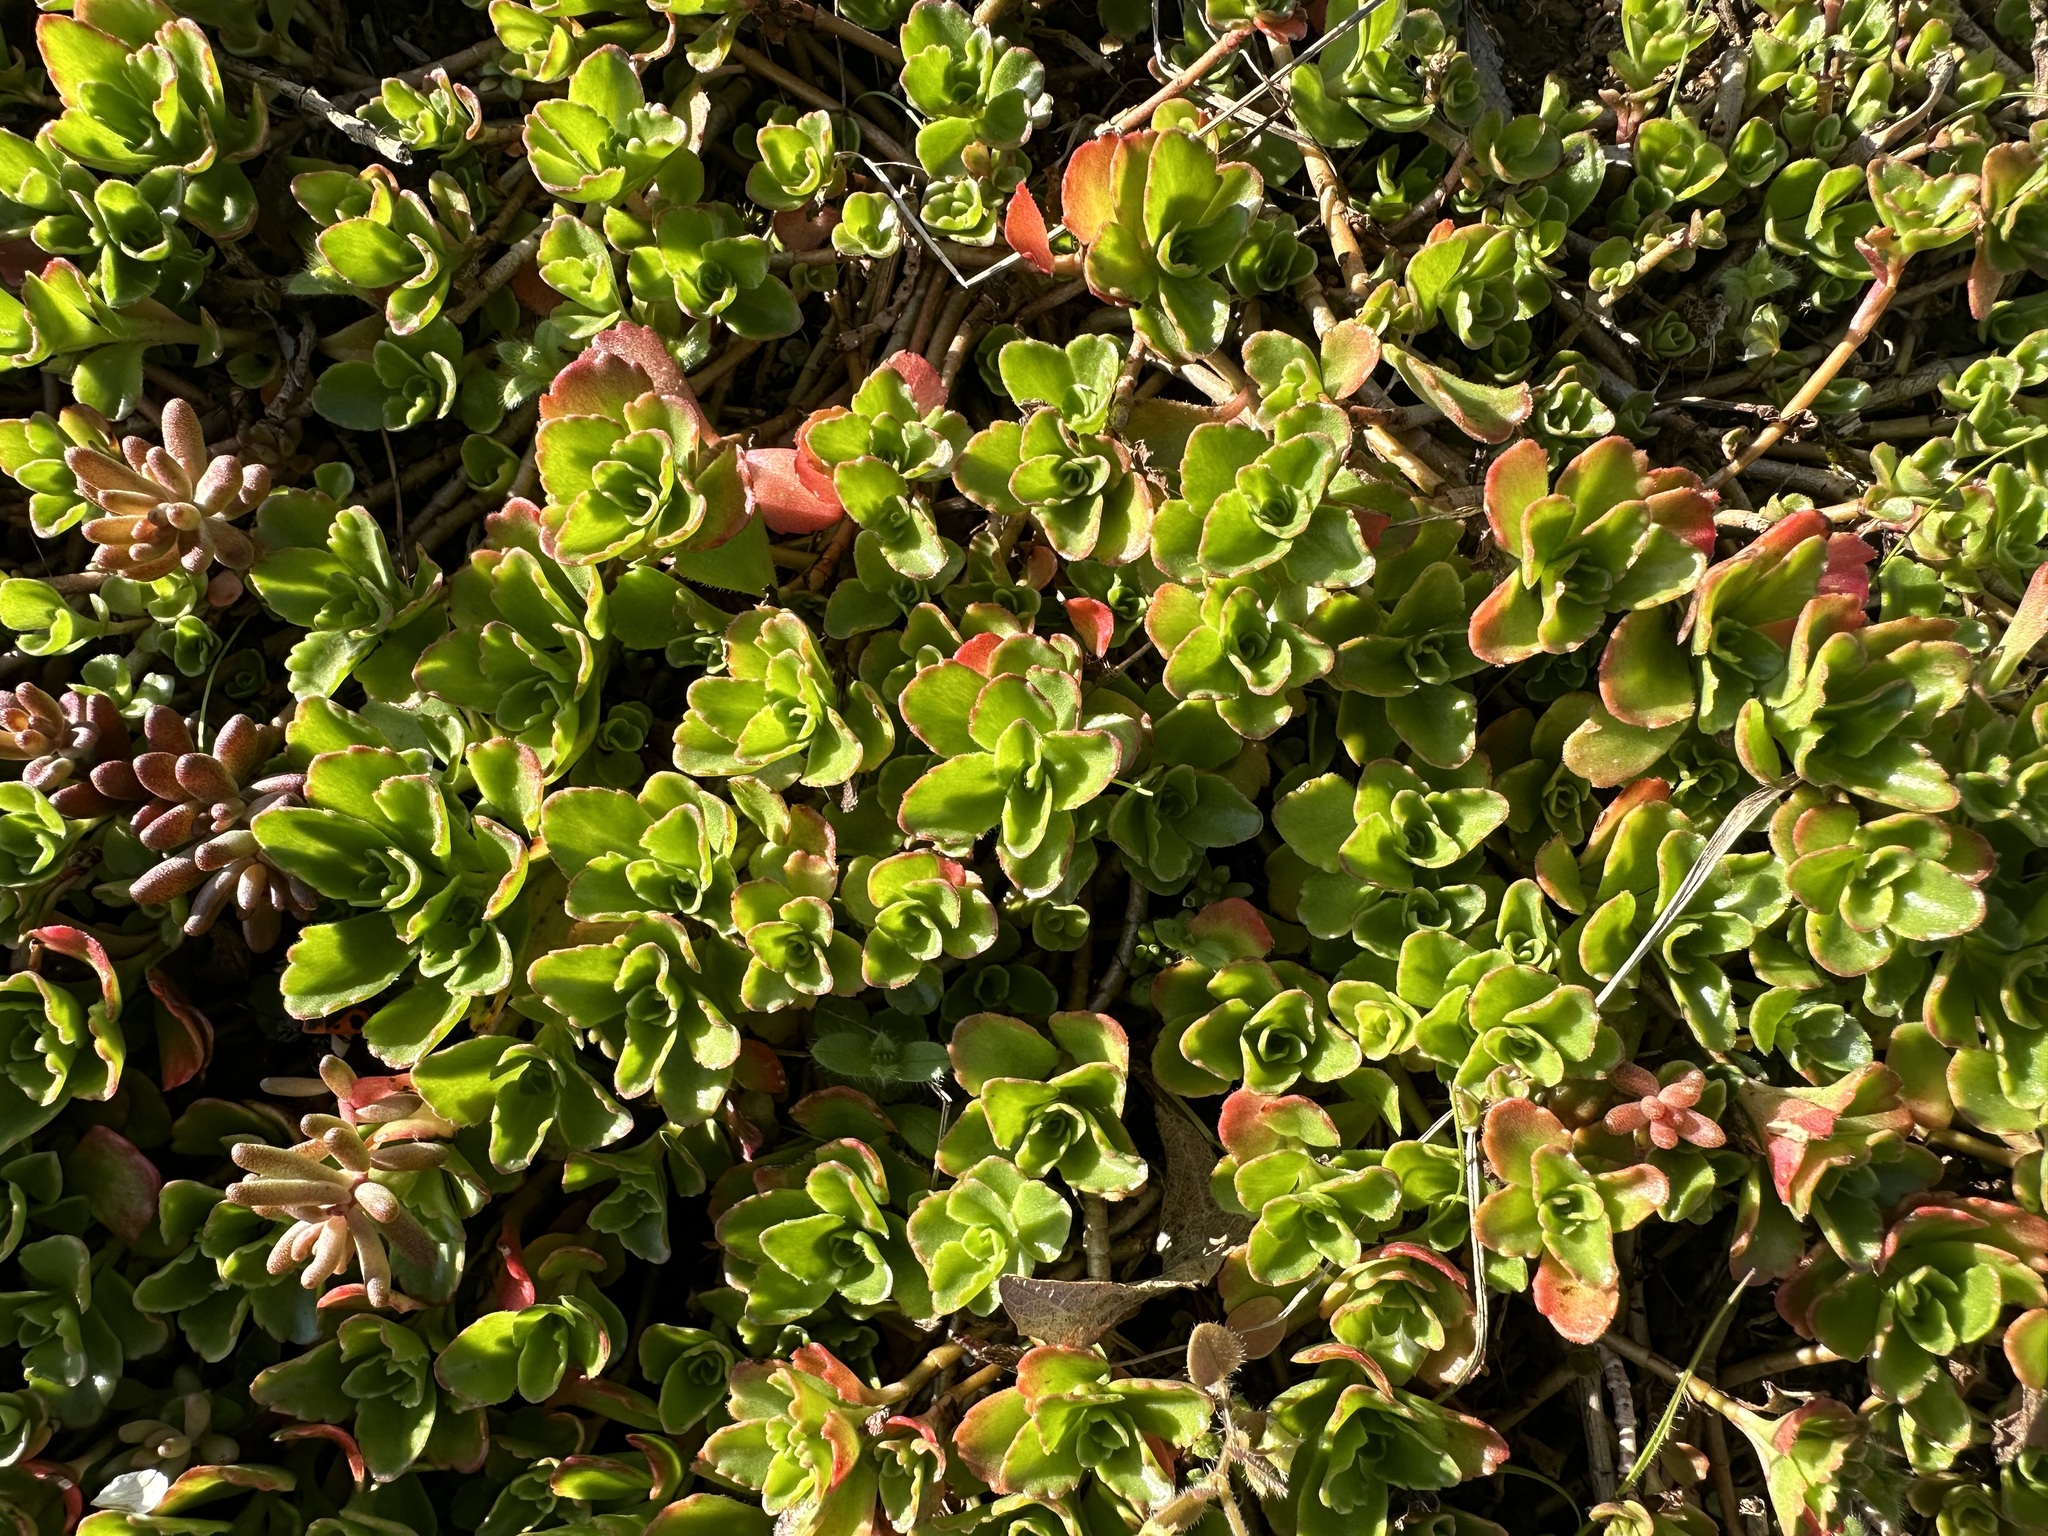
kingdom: Plantae
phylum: Tracheophyta
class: Magnoliopsida
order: Saxifragales
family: Crassulaceae
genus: Phedimus
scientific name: Phedimus spurius
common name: Caucasian stonecrop
